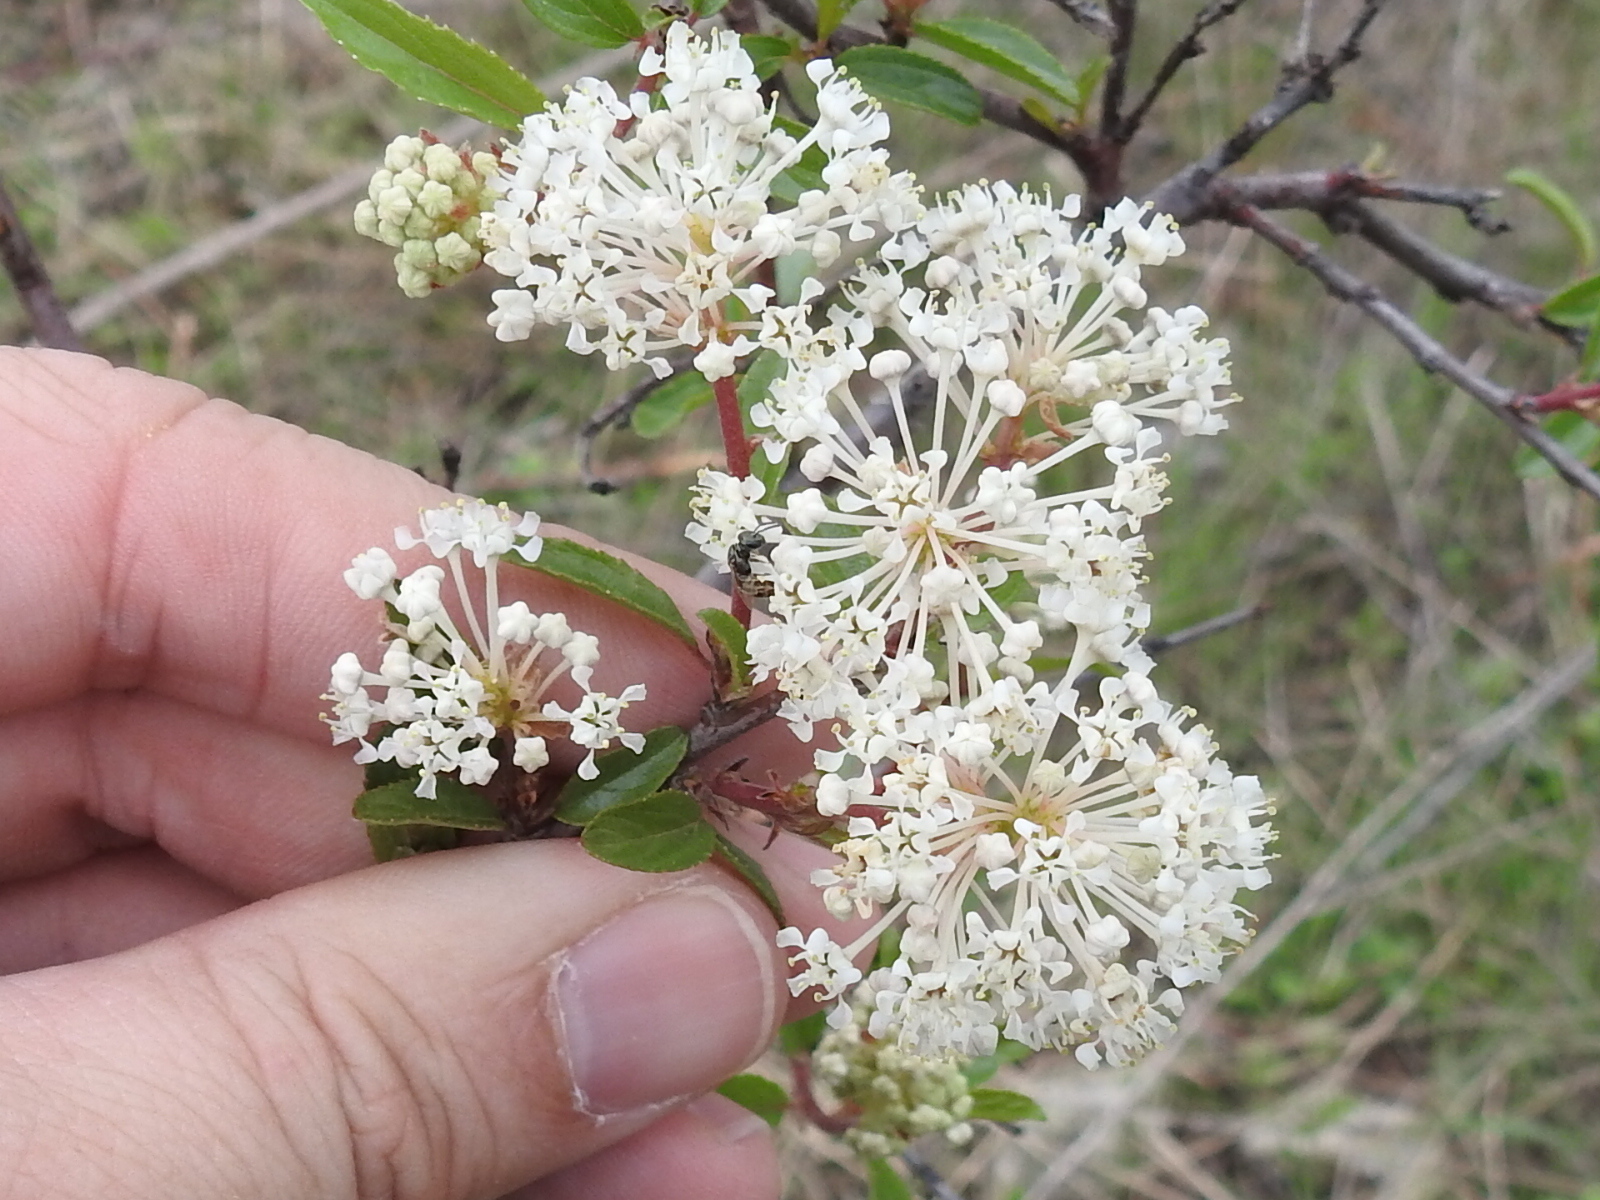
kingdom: Plantae
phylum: Tracheophyta
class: Magnoliopsida
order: Rosales
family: Rhamnaceae
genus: Ceanothus
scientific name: Ceanothus herbaceus
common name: Inland ceanothus
